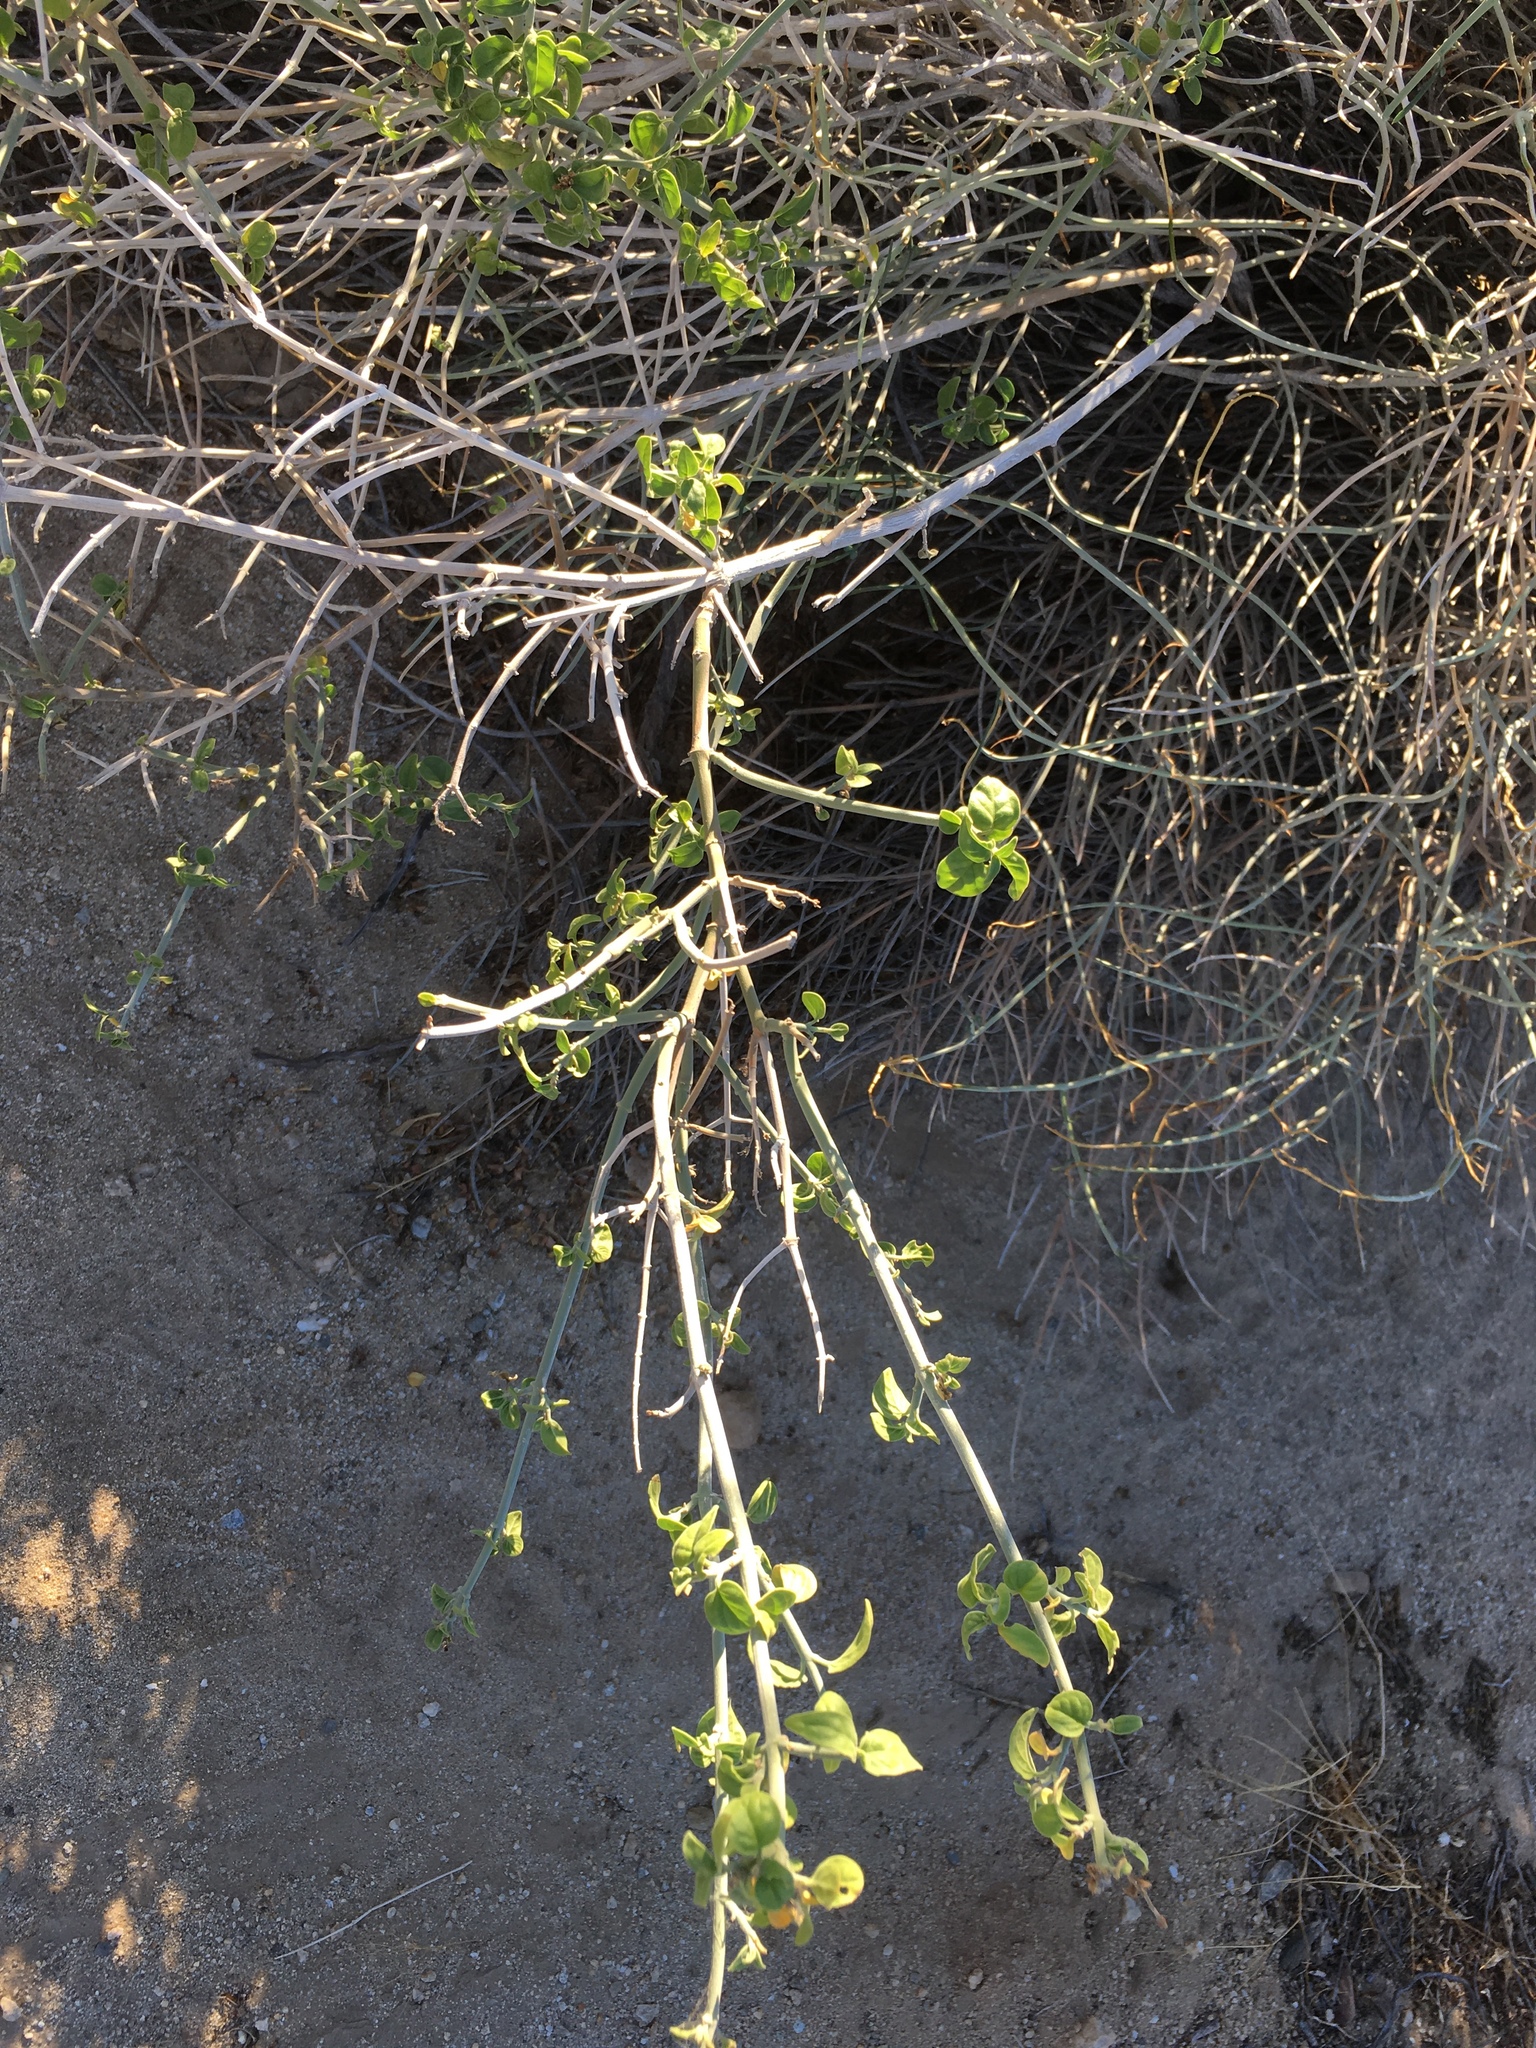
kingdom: Plantae
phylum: Tracheophyta
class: Magnoliopsida
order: Lamiales
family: Acanthaceae
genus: Justicia
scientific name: Justicia californica
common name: Chuparosa-honeysuckle
